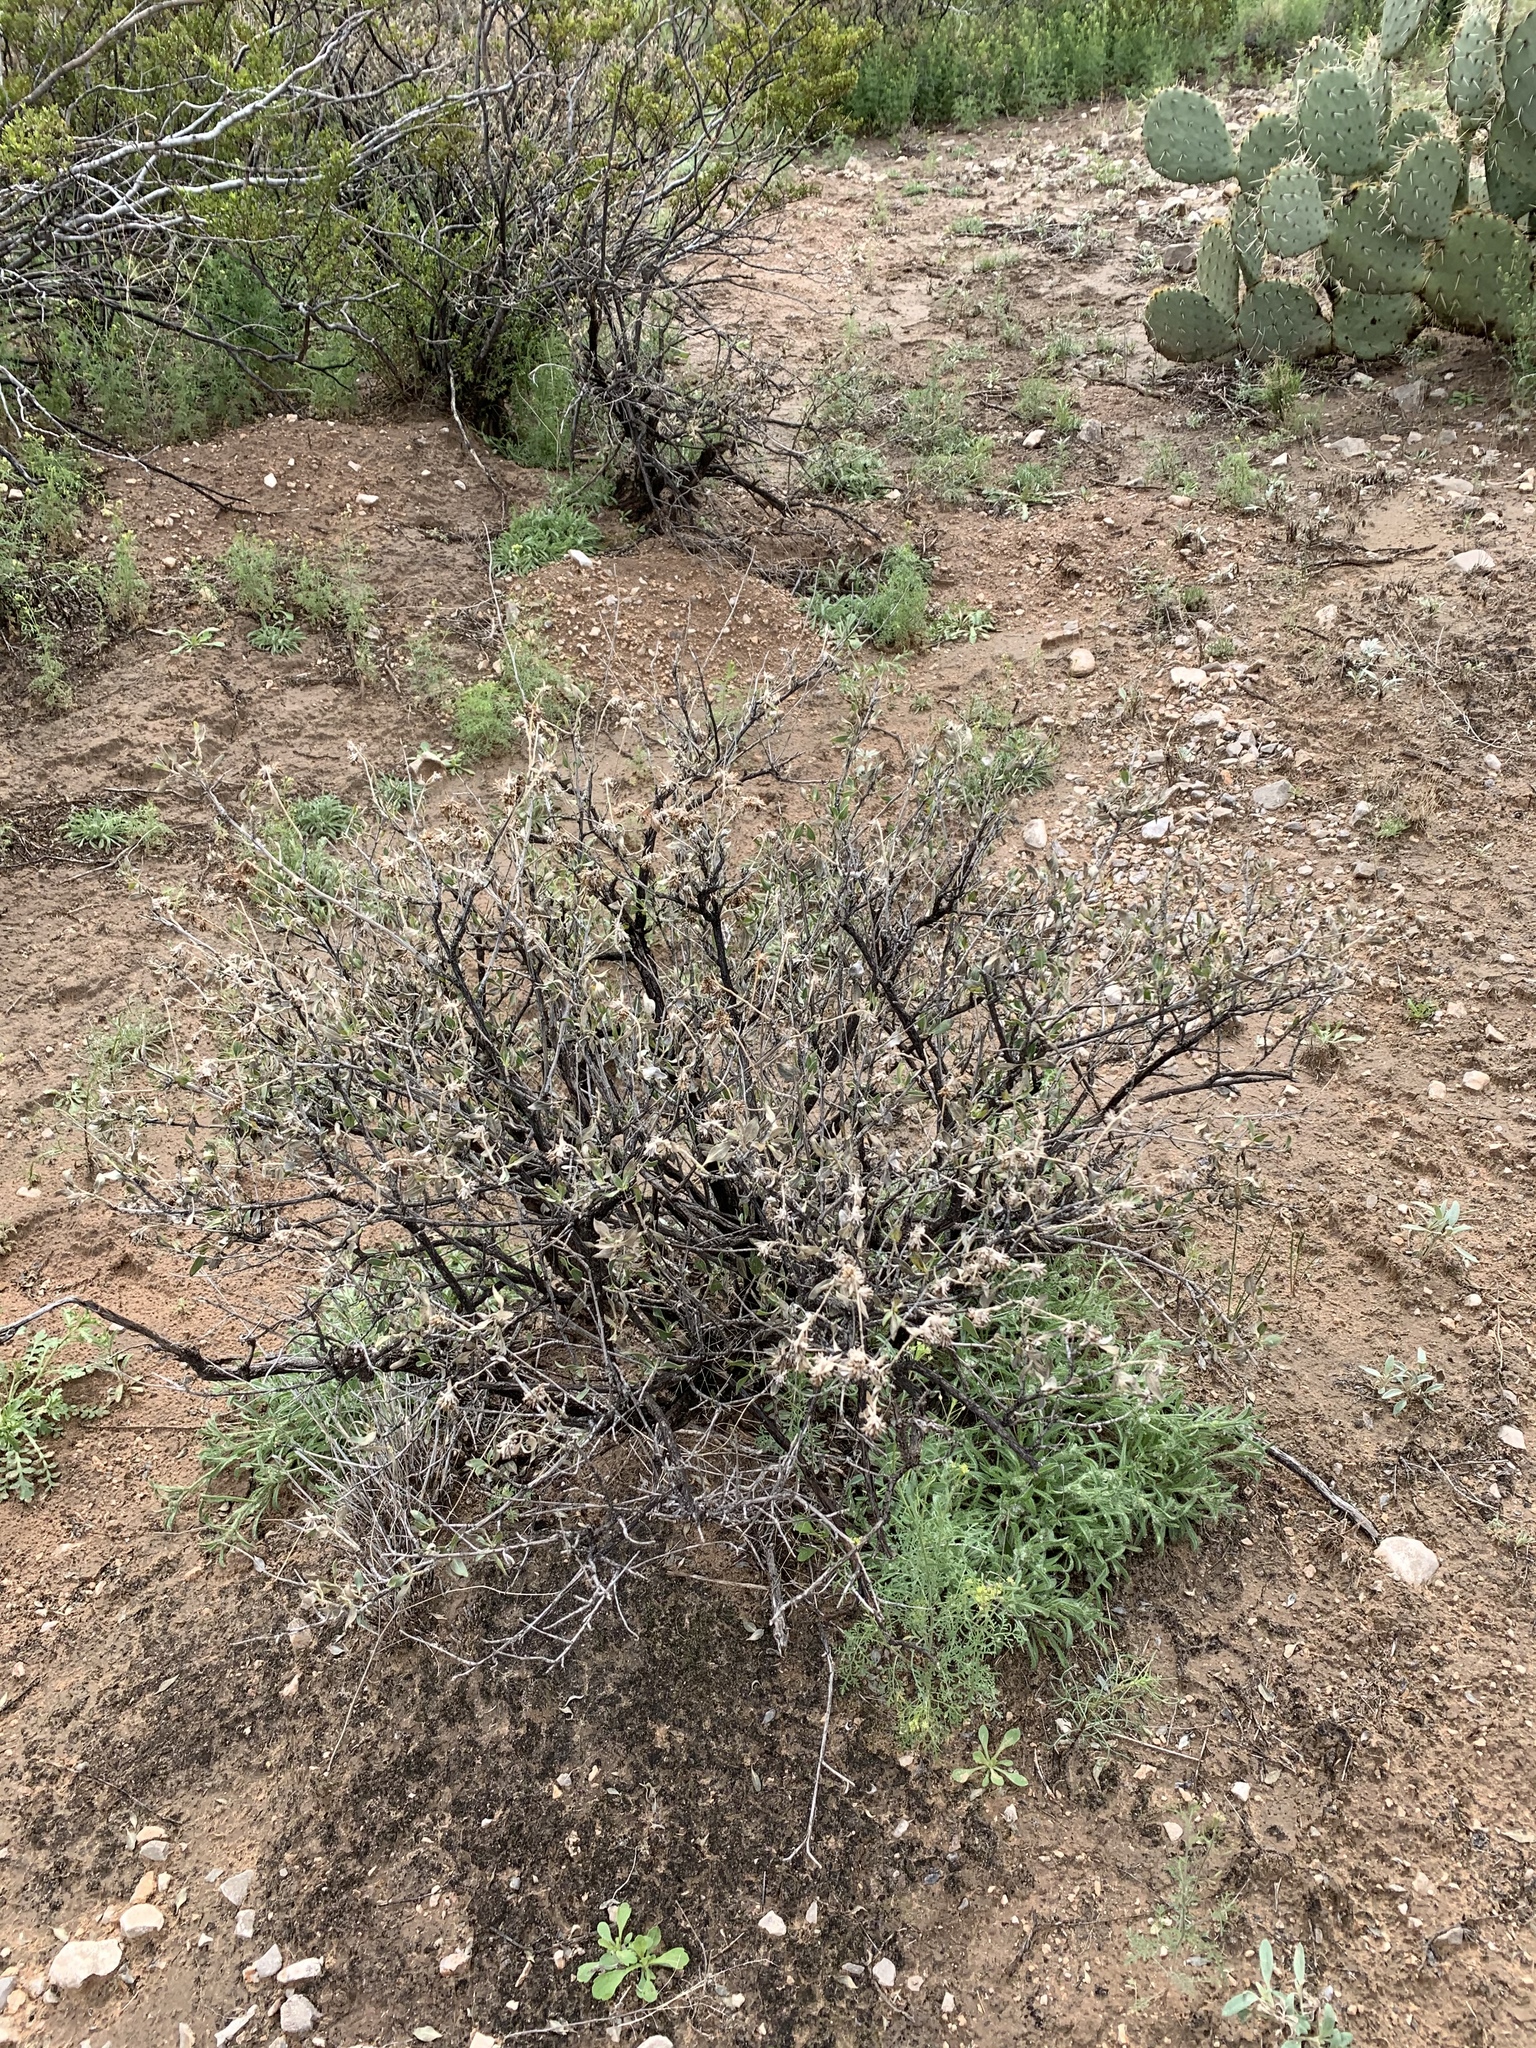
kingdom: Plantae
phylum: Tracheophyta
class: Magnoliopsida
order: Asterales
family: Asteraceae
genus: Flourensia
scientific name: Flourensia cernua
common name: Varnishbush
